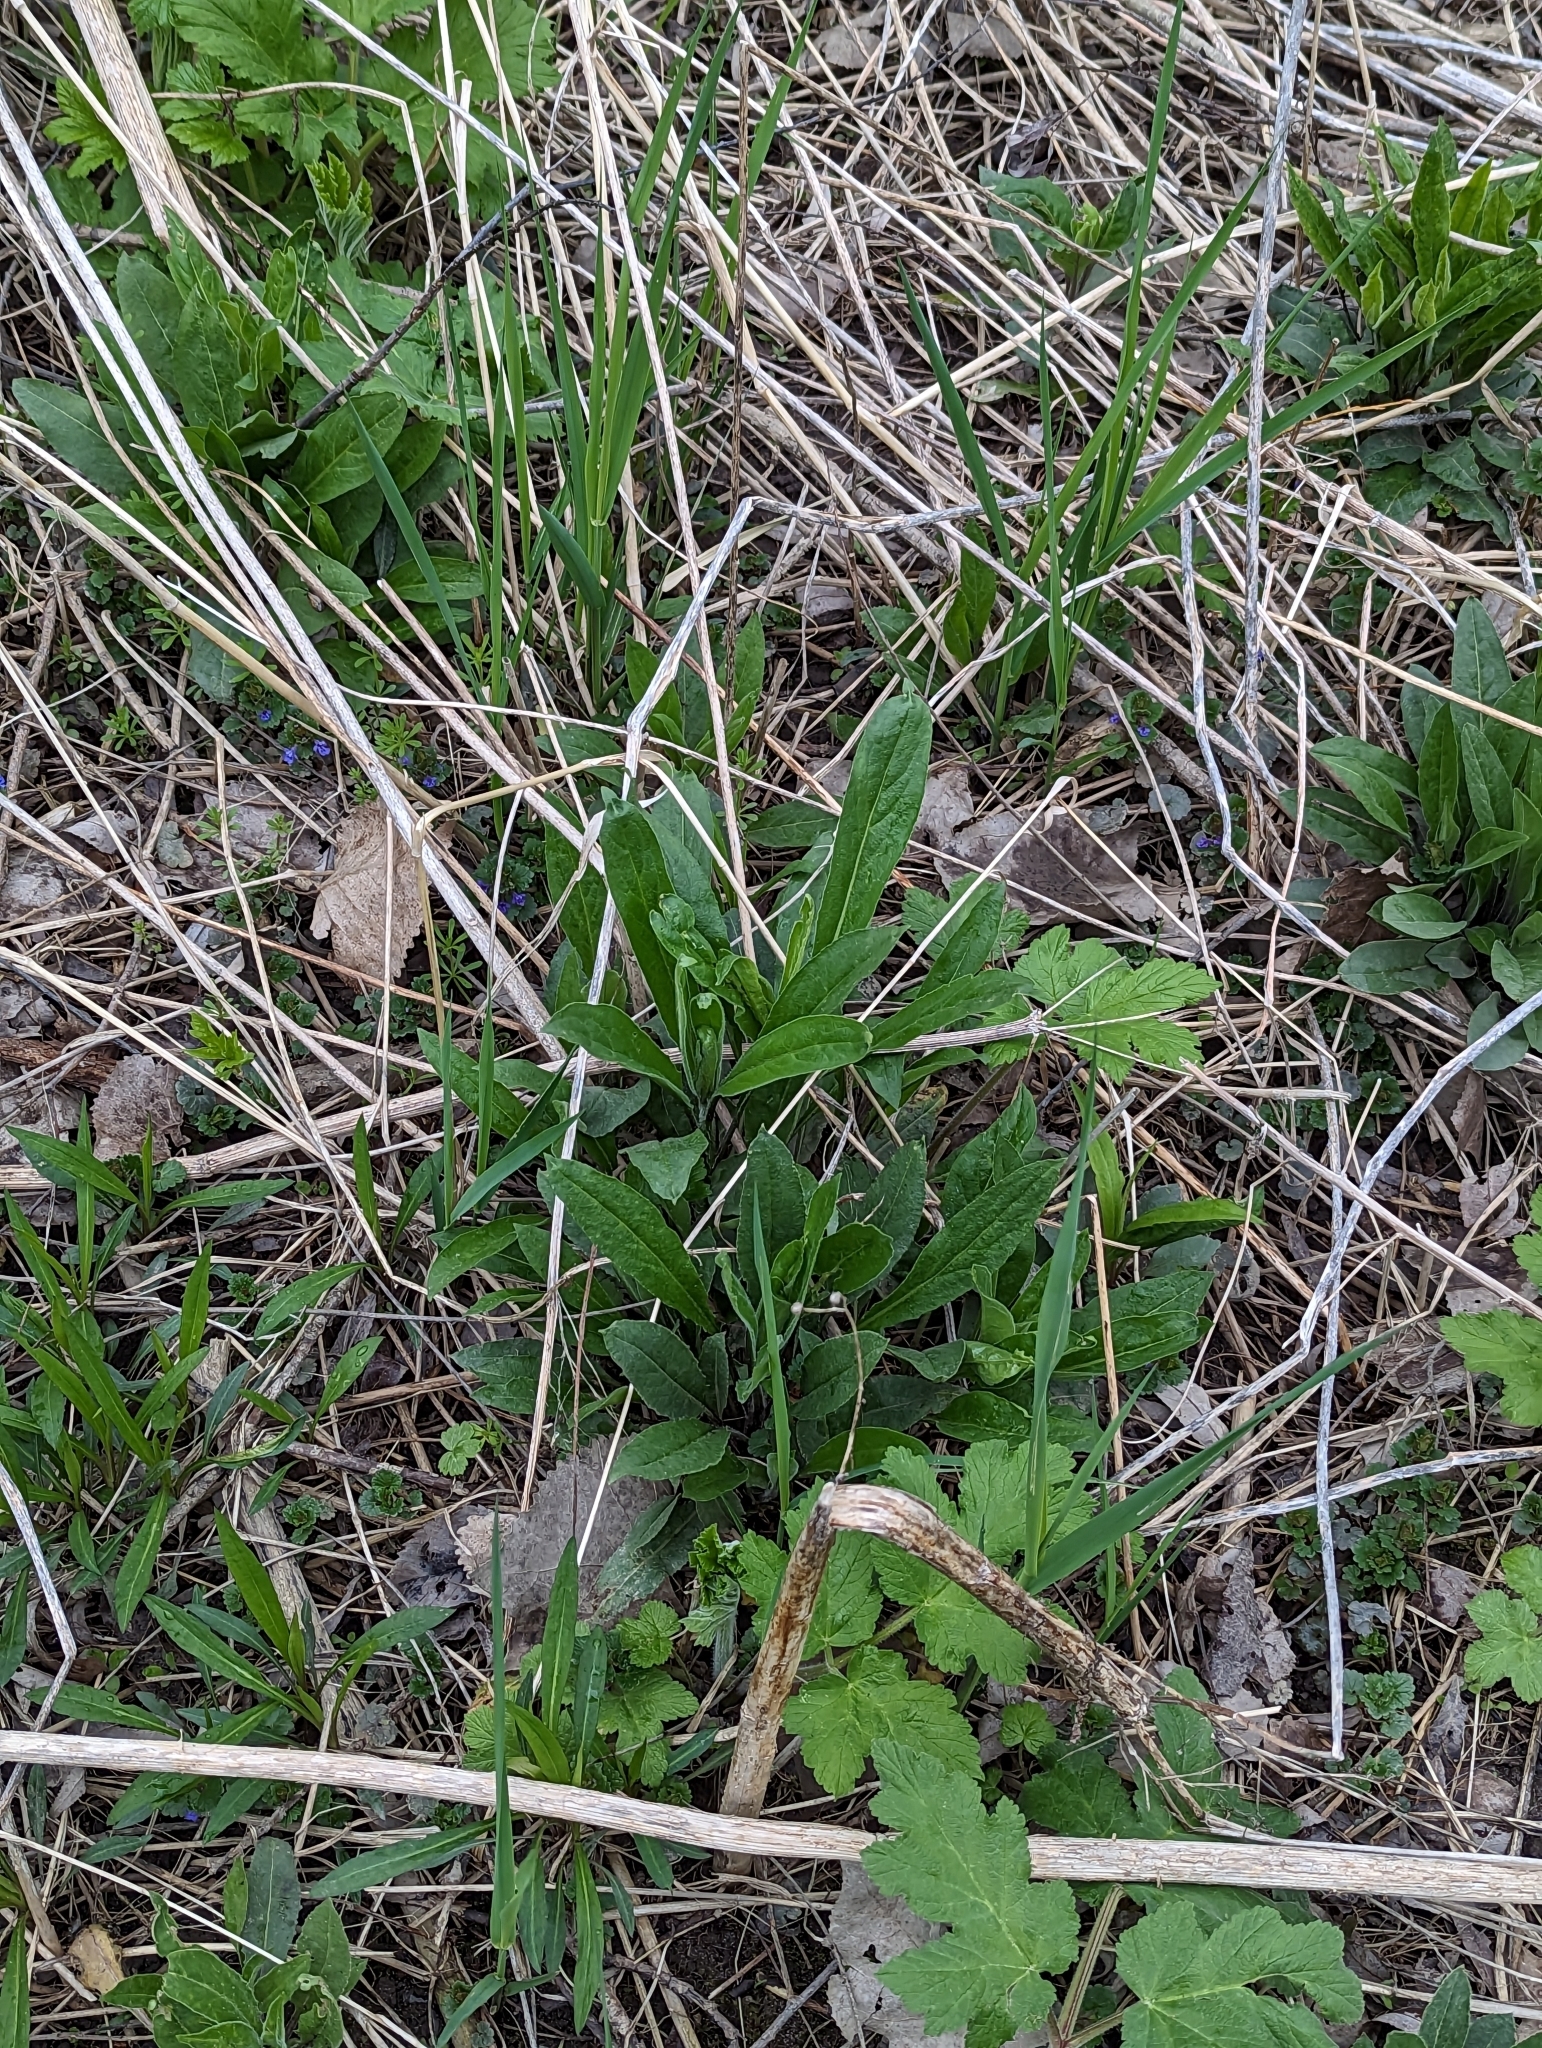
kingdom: Plantae
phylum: Tracheophyta
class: Magnoliopsida
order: Brassicales
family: Brassicaceae
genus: Hesperis
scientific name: Hesperis matronalis
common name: Dame's-violet
